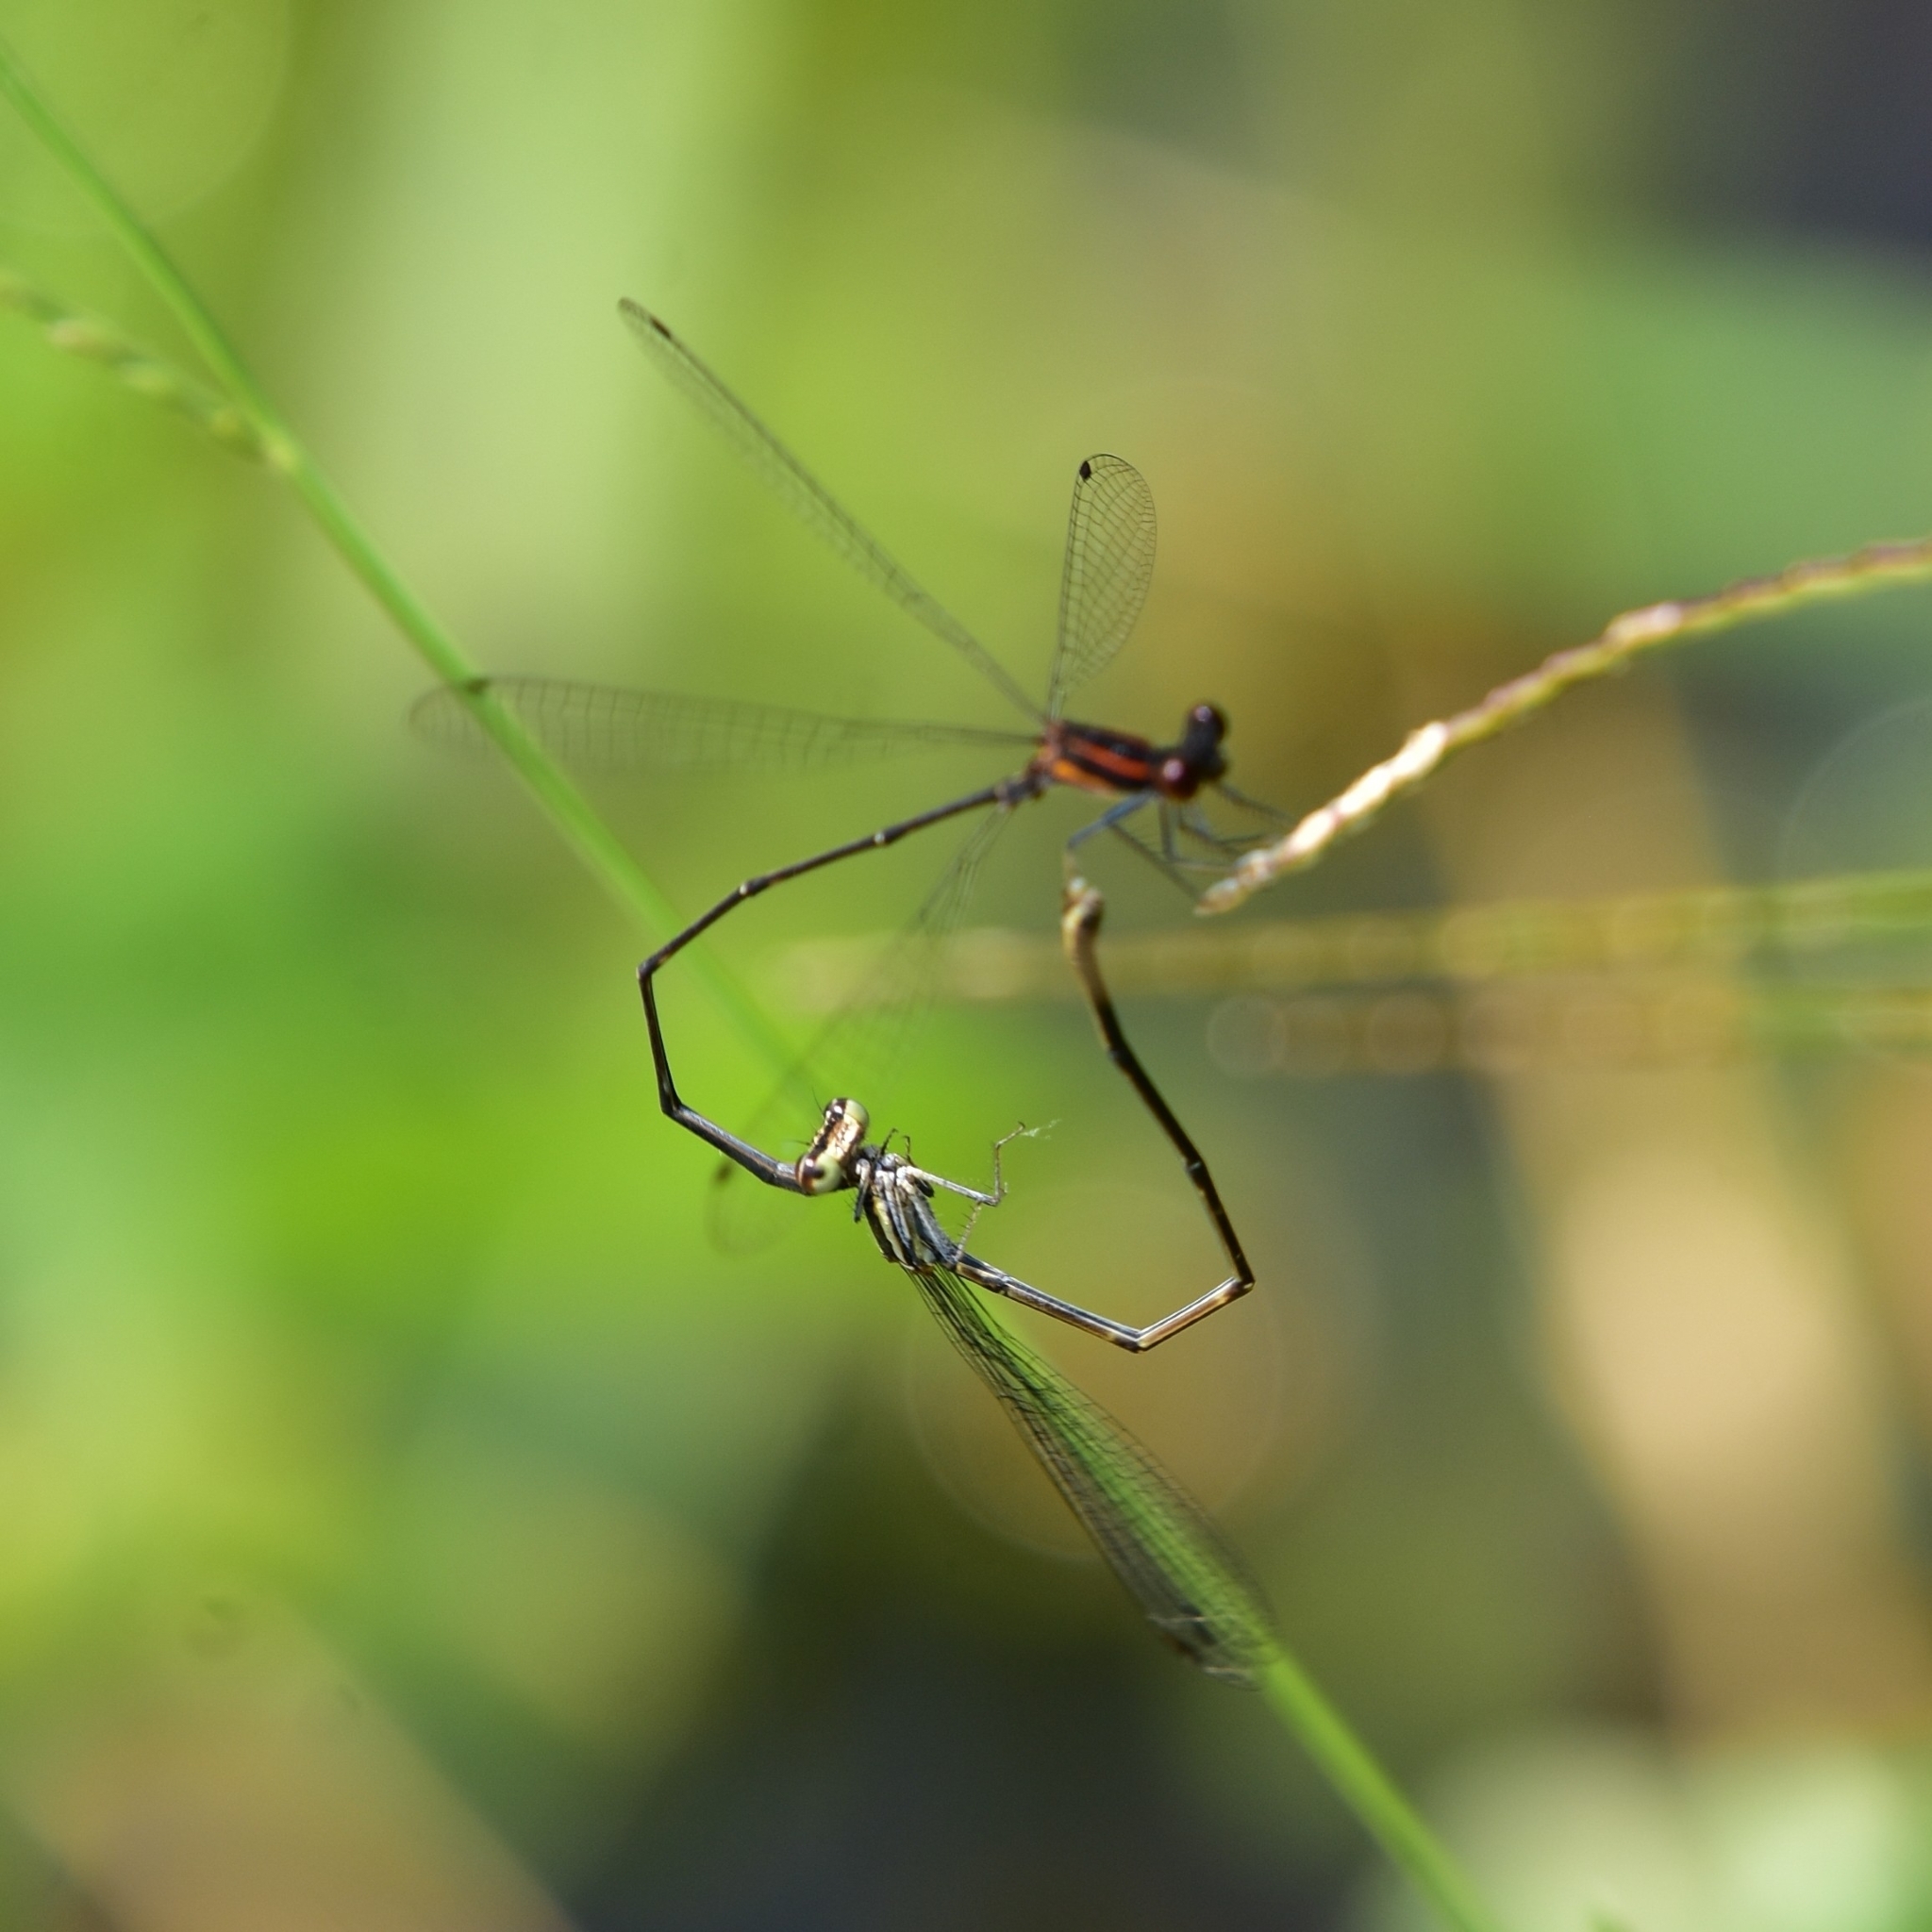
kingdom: Animalia
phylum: Arthropoda
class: Insecta
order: Odonata
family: Platycnemididae
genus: Prodasineura
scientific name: Prodasineura verticalis
